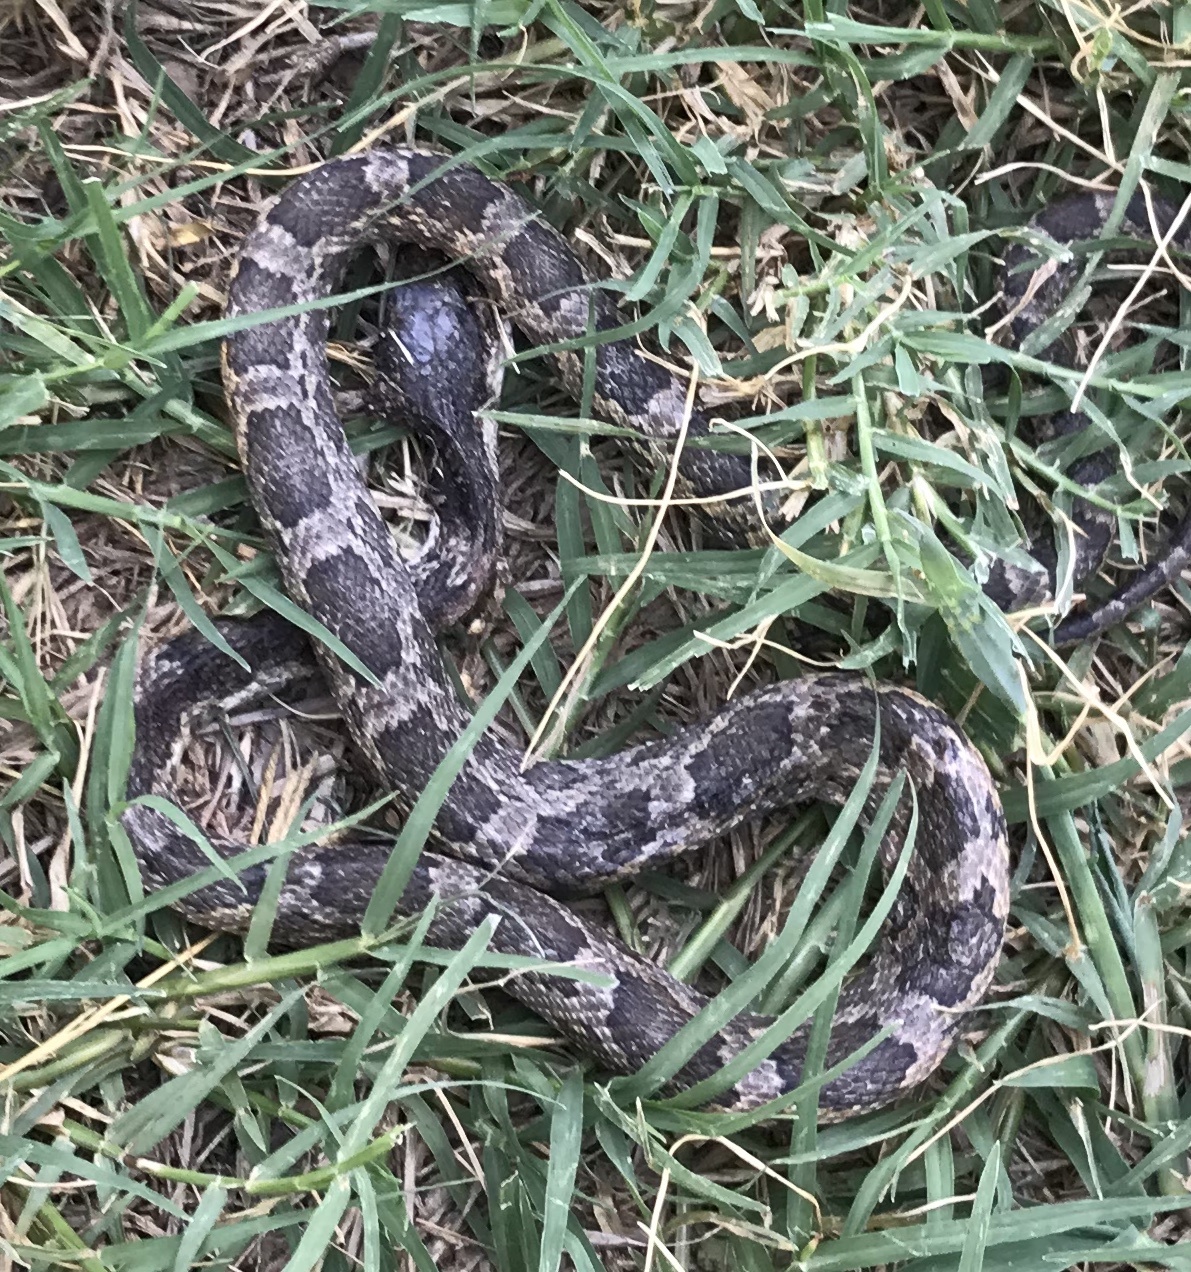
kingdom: Animalia
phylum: Chordata
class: Squamata
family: Colubridae
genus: Pantherophis
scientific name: Pantherophis obsoletus
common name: Black rat snake
